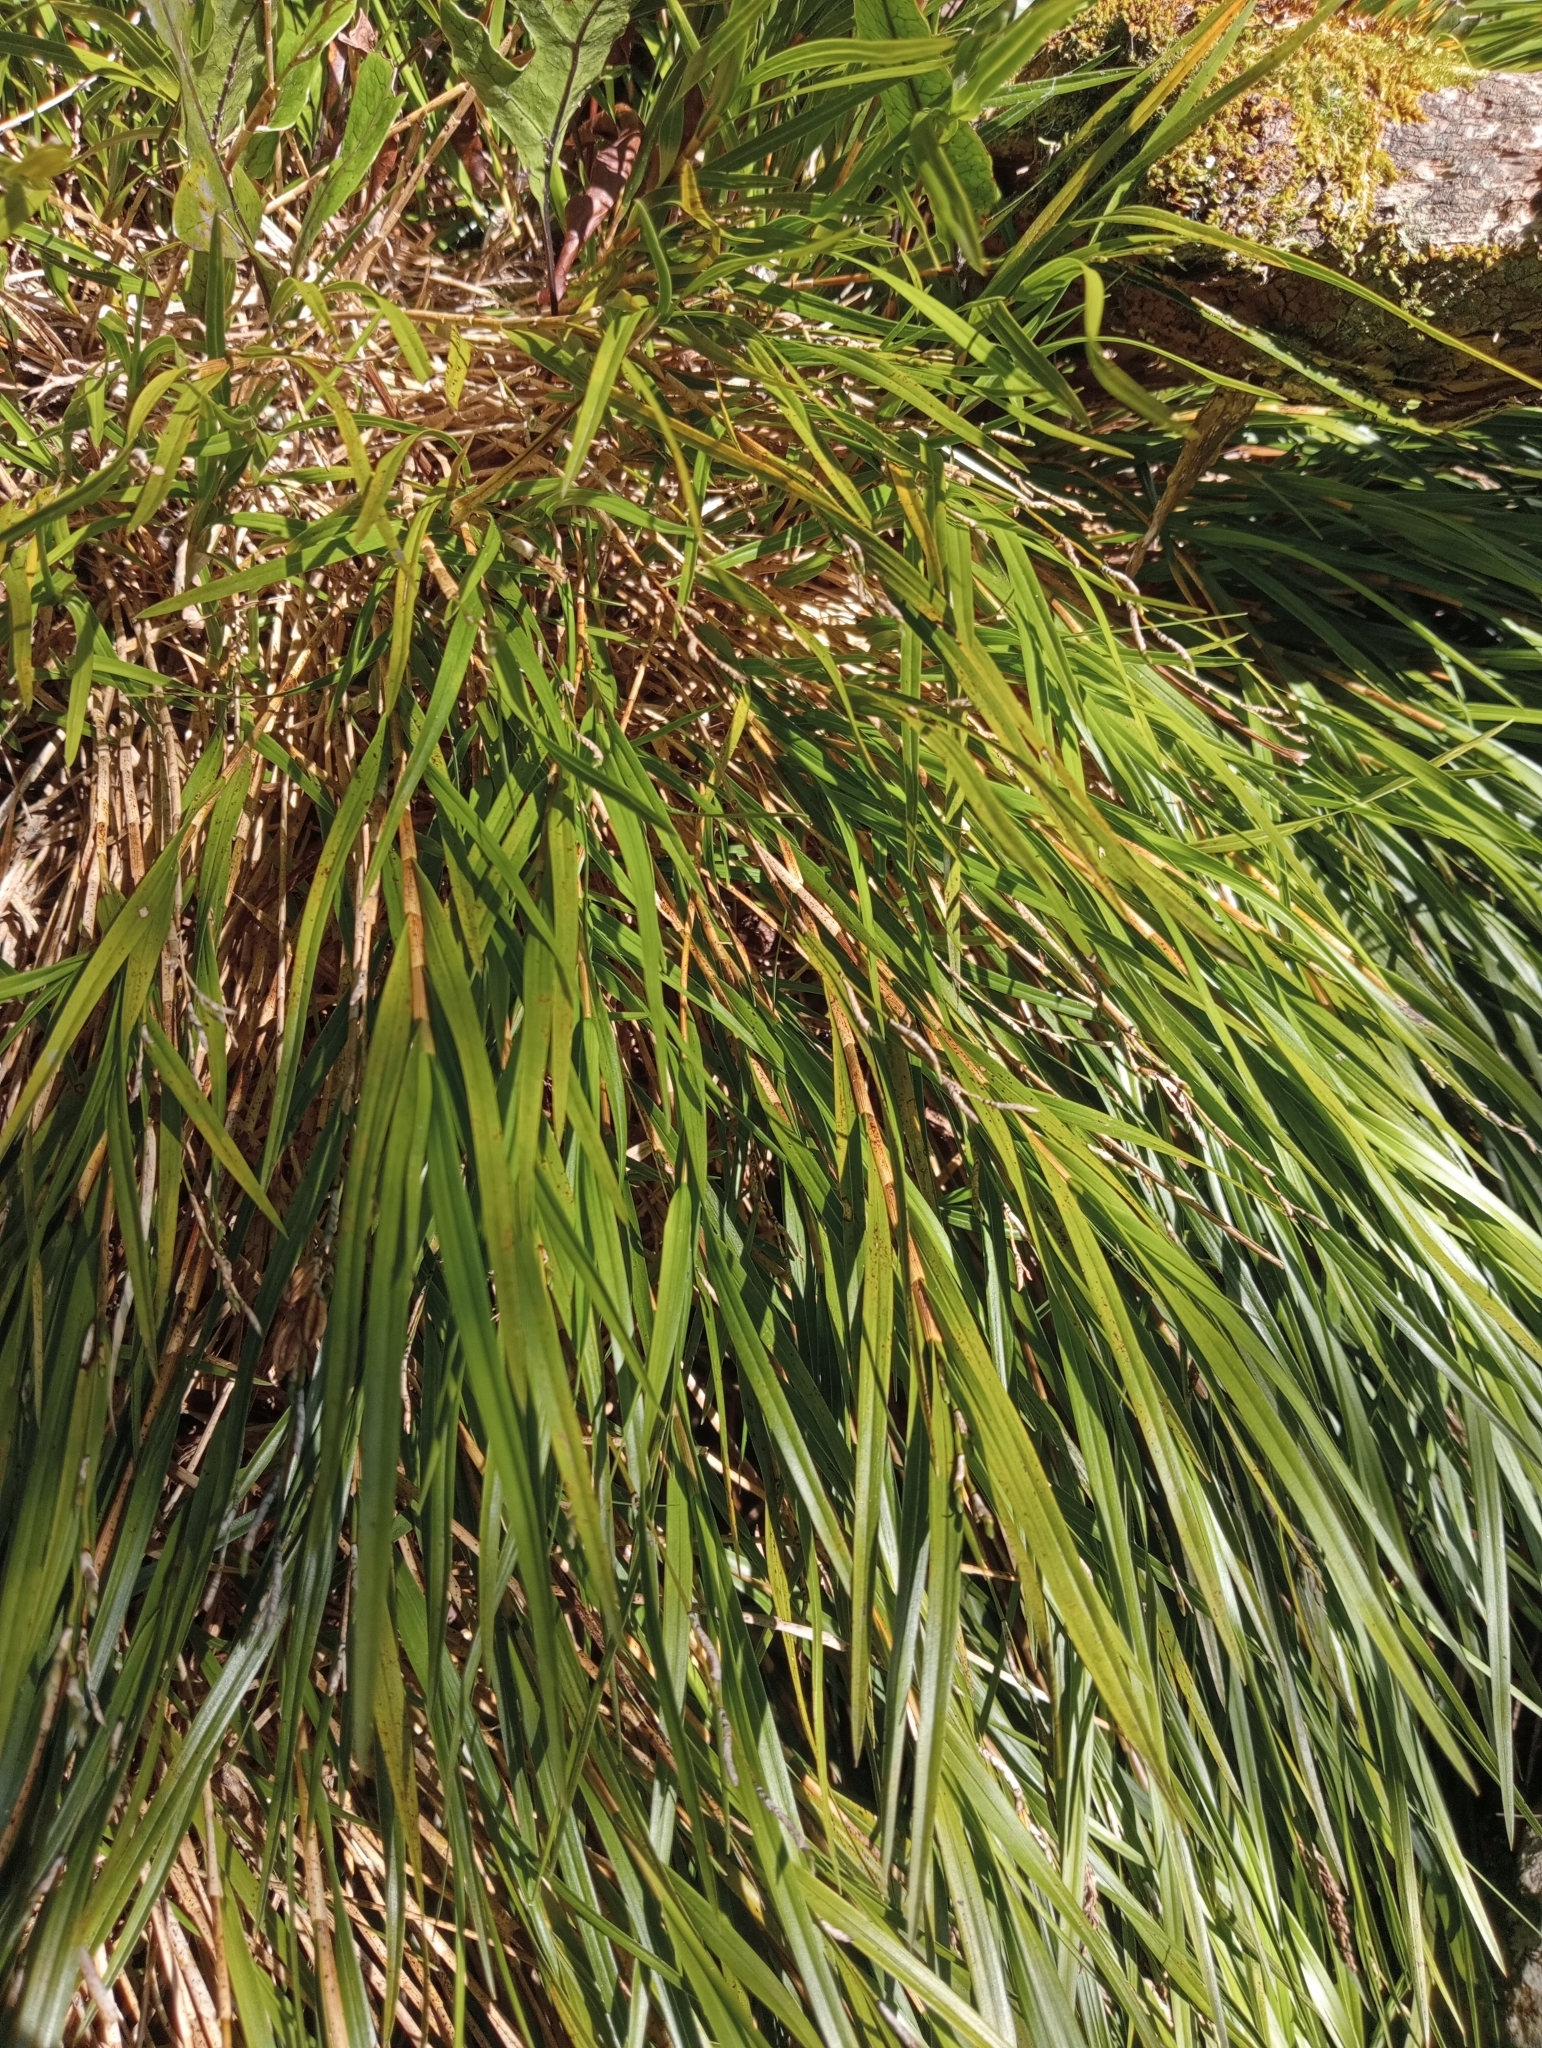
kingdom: Plantae
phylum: Tracheophyta
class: Liliopsida
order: Asparagales
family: Orchidaceae
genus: Earina
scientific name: Earina mucronata
